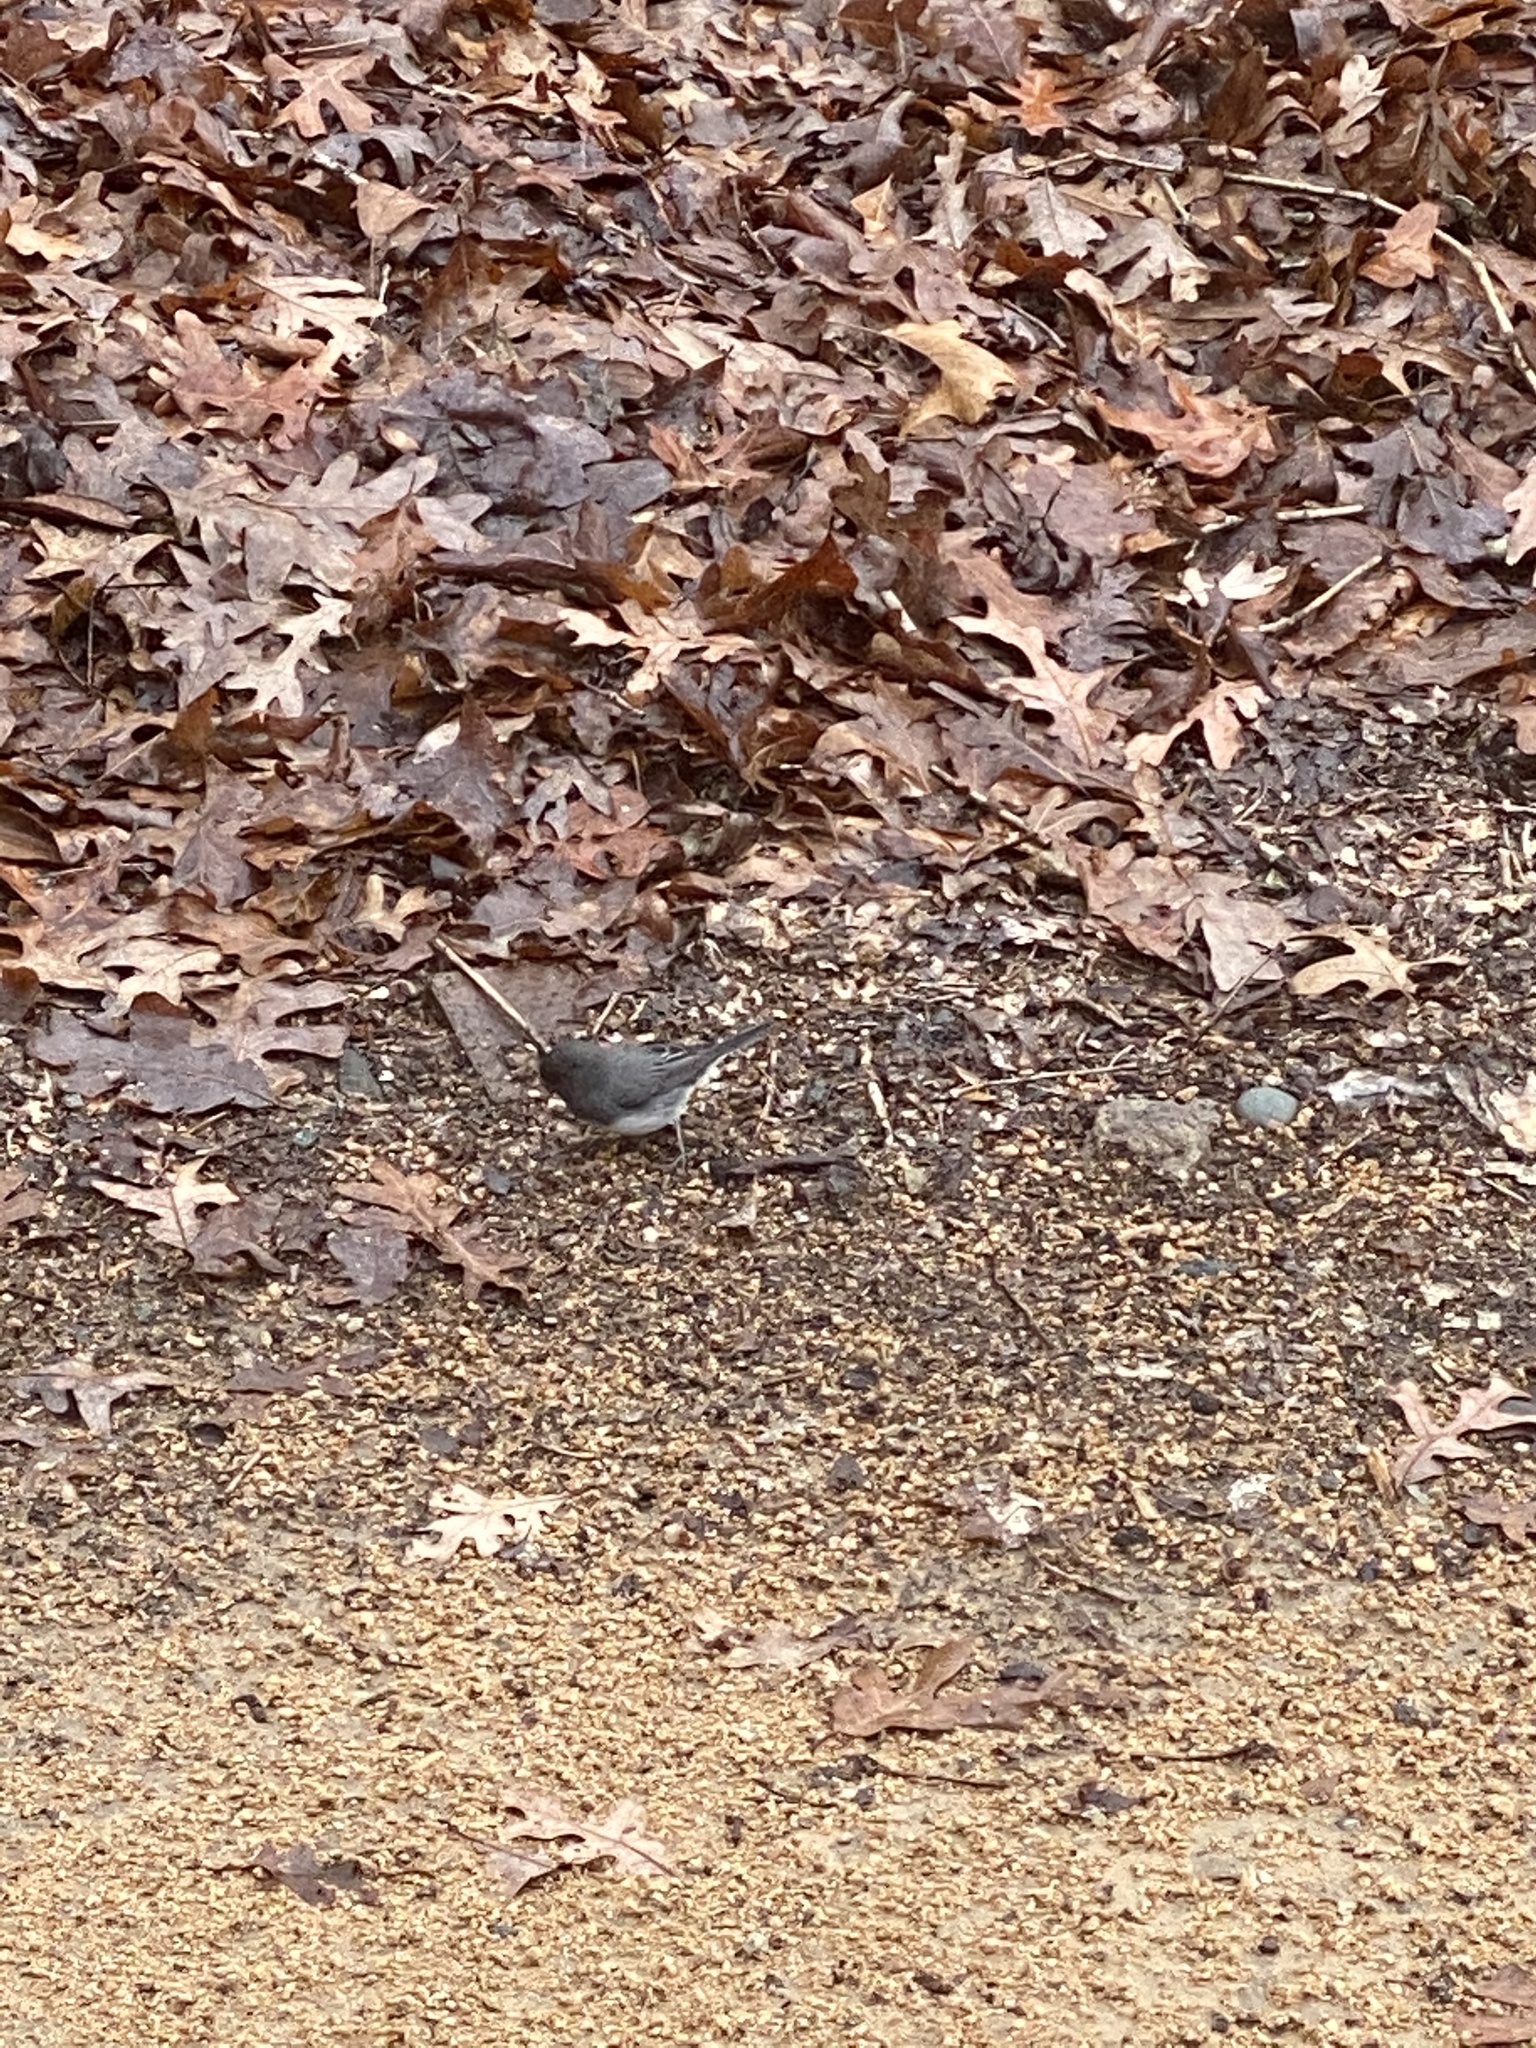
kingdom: Animalia
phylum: Chordata
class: Aves
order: Passeriformes
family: Passerellidae
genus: Junco
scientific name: Junco hyemalis
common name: Dark-eyed junco
